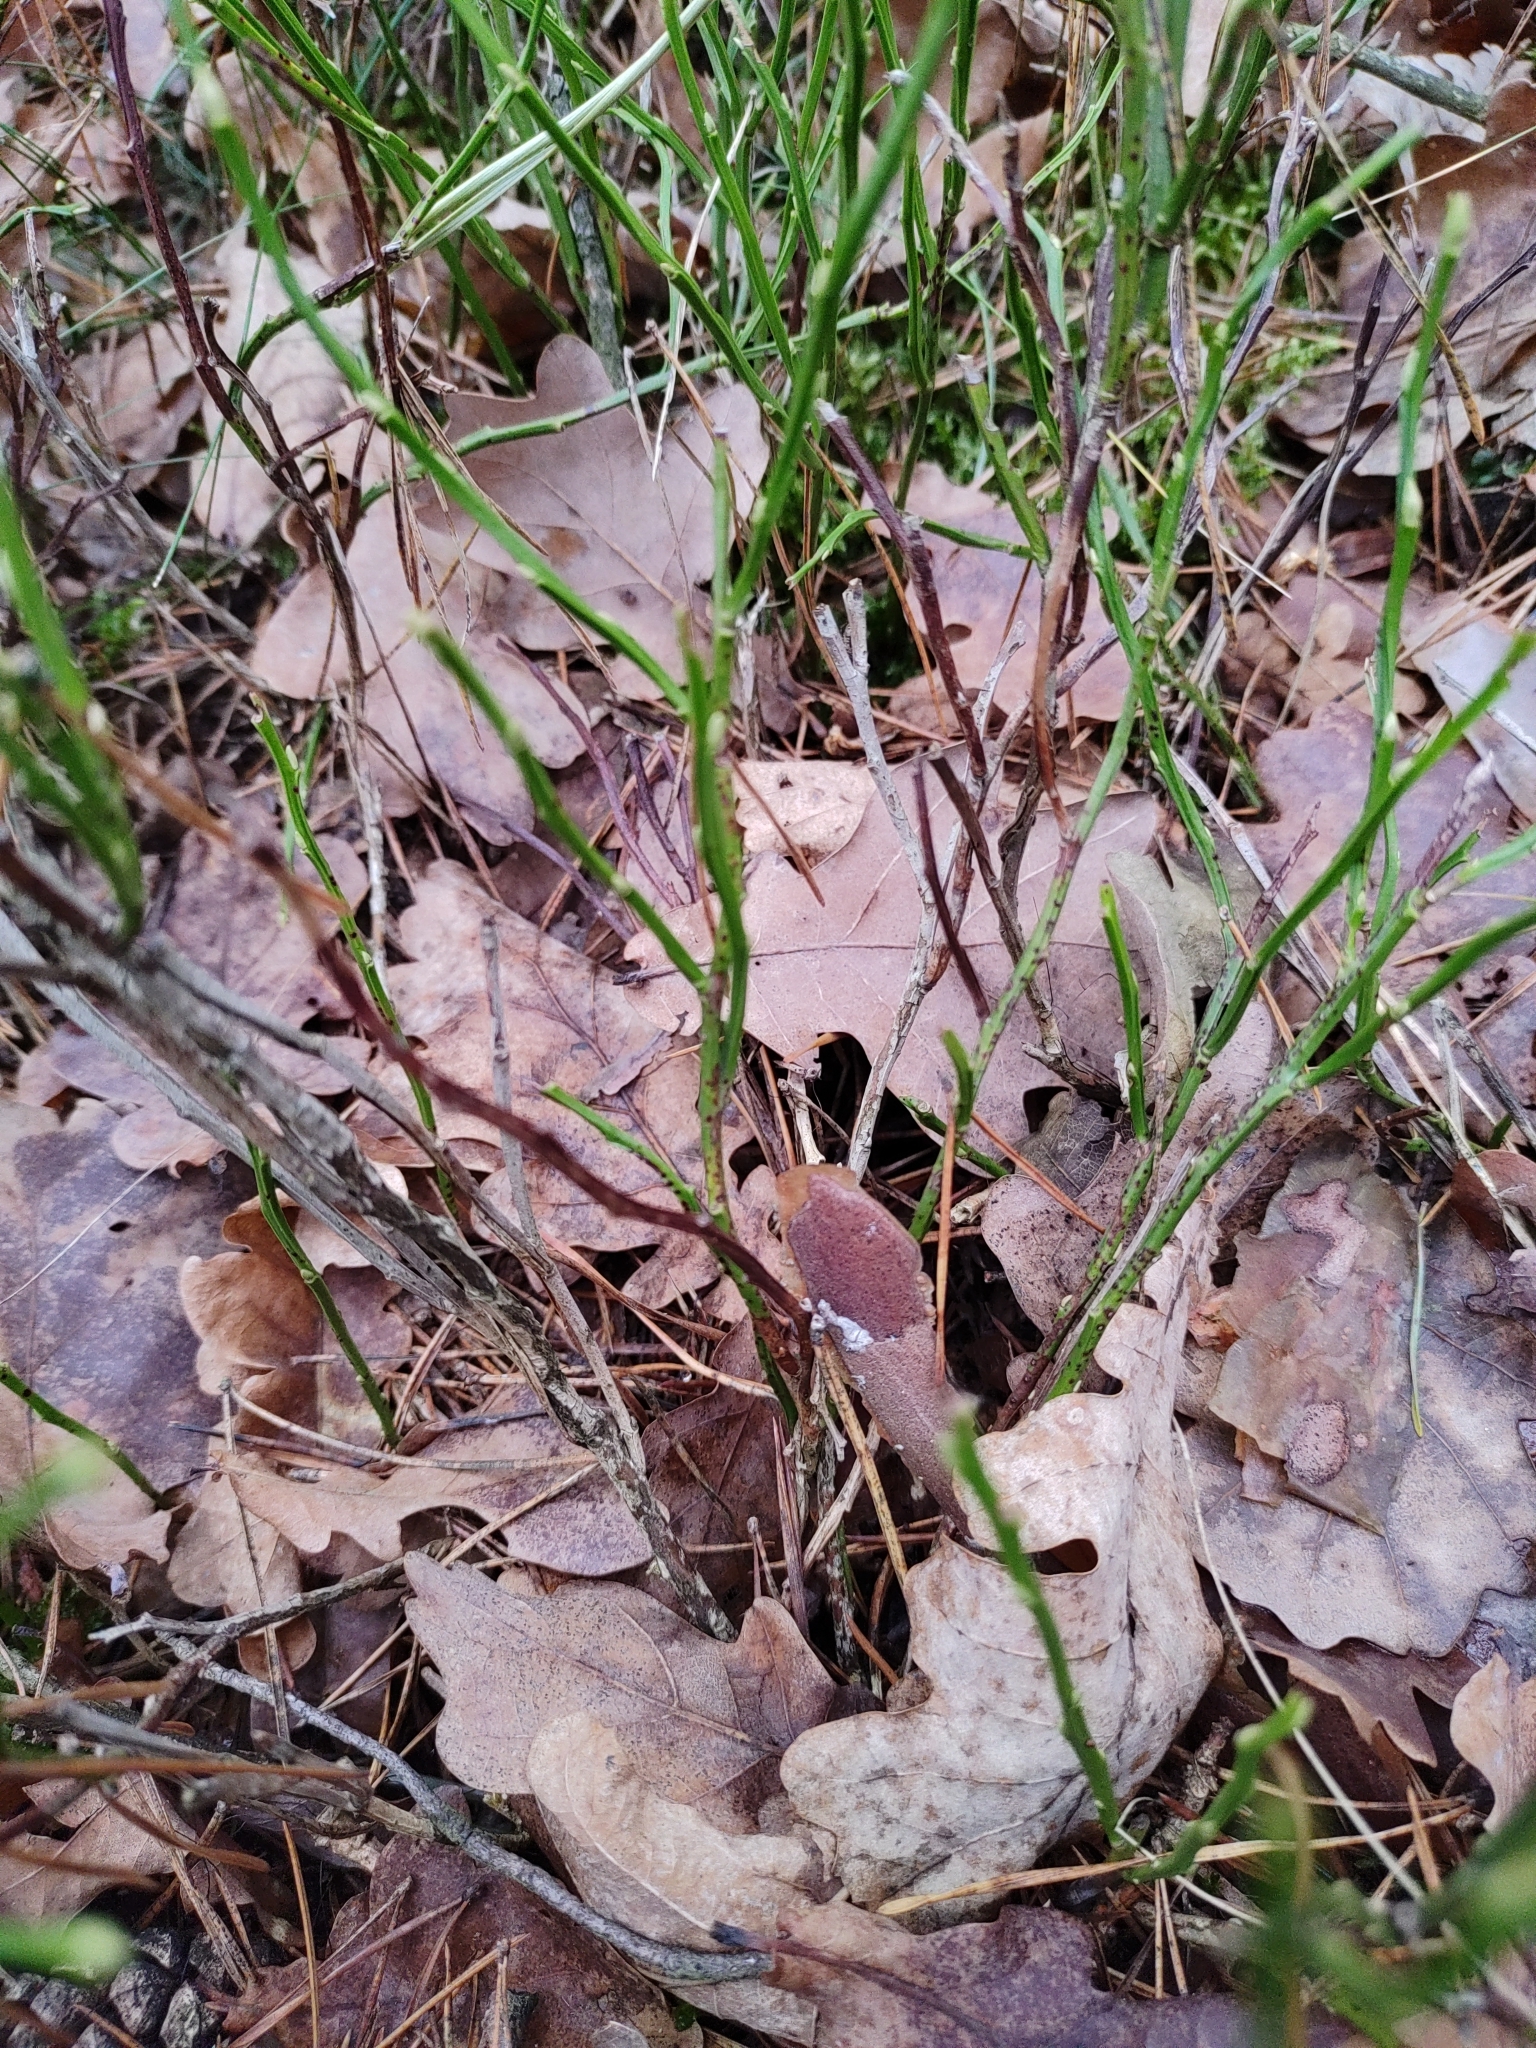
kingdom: Plantae
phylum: Tracheophyta
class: Magnoliopsida
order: Ericales
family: Ericaceae
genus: Vaccinium
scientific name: Vaccinium myrtillus
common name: Bilberry
